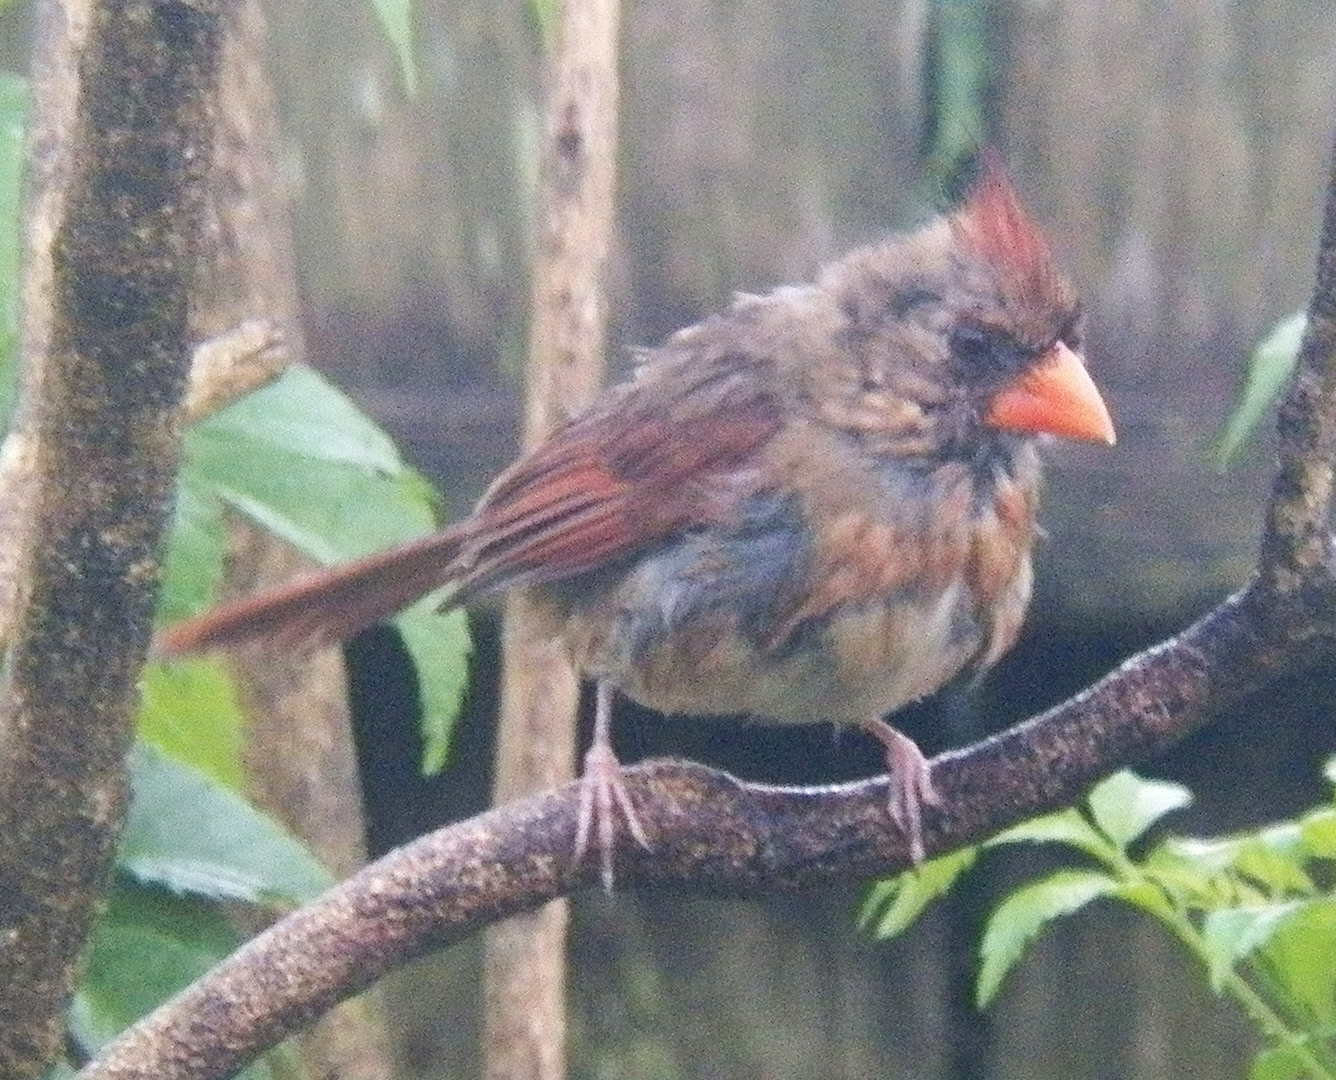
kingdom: Animalia
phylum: Chordata
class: Aves
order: Passeriformes
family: Cardinalidae
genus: Cardinalis
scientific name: Cardinalis cardinalis
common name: Northern cardinal
